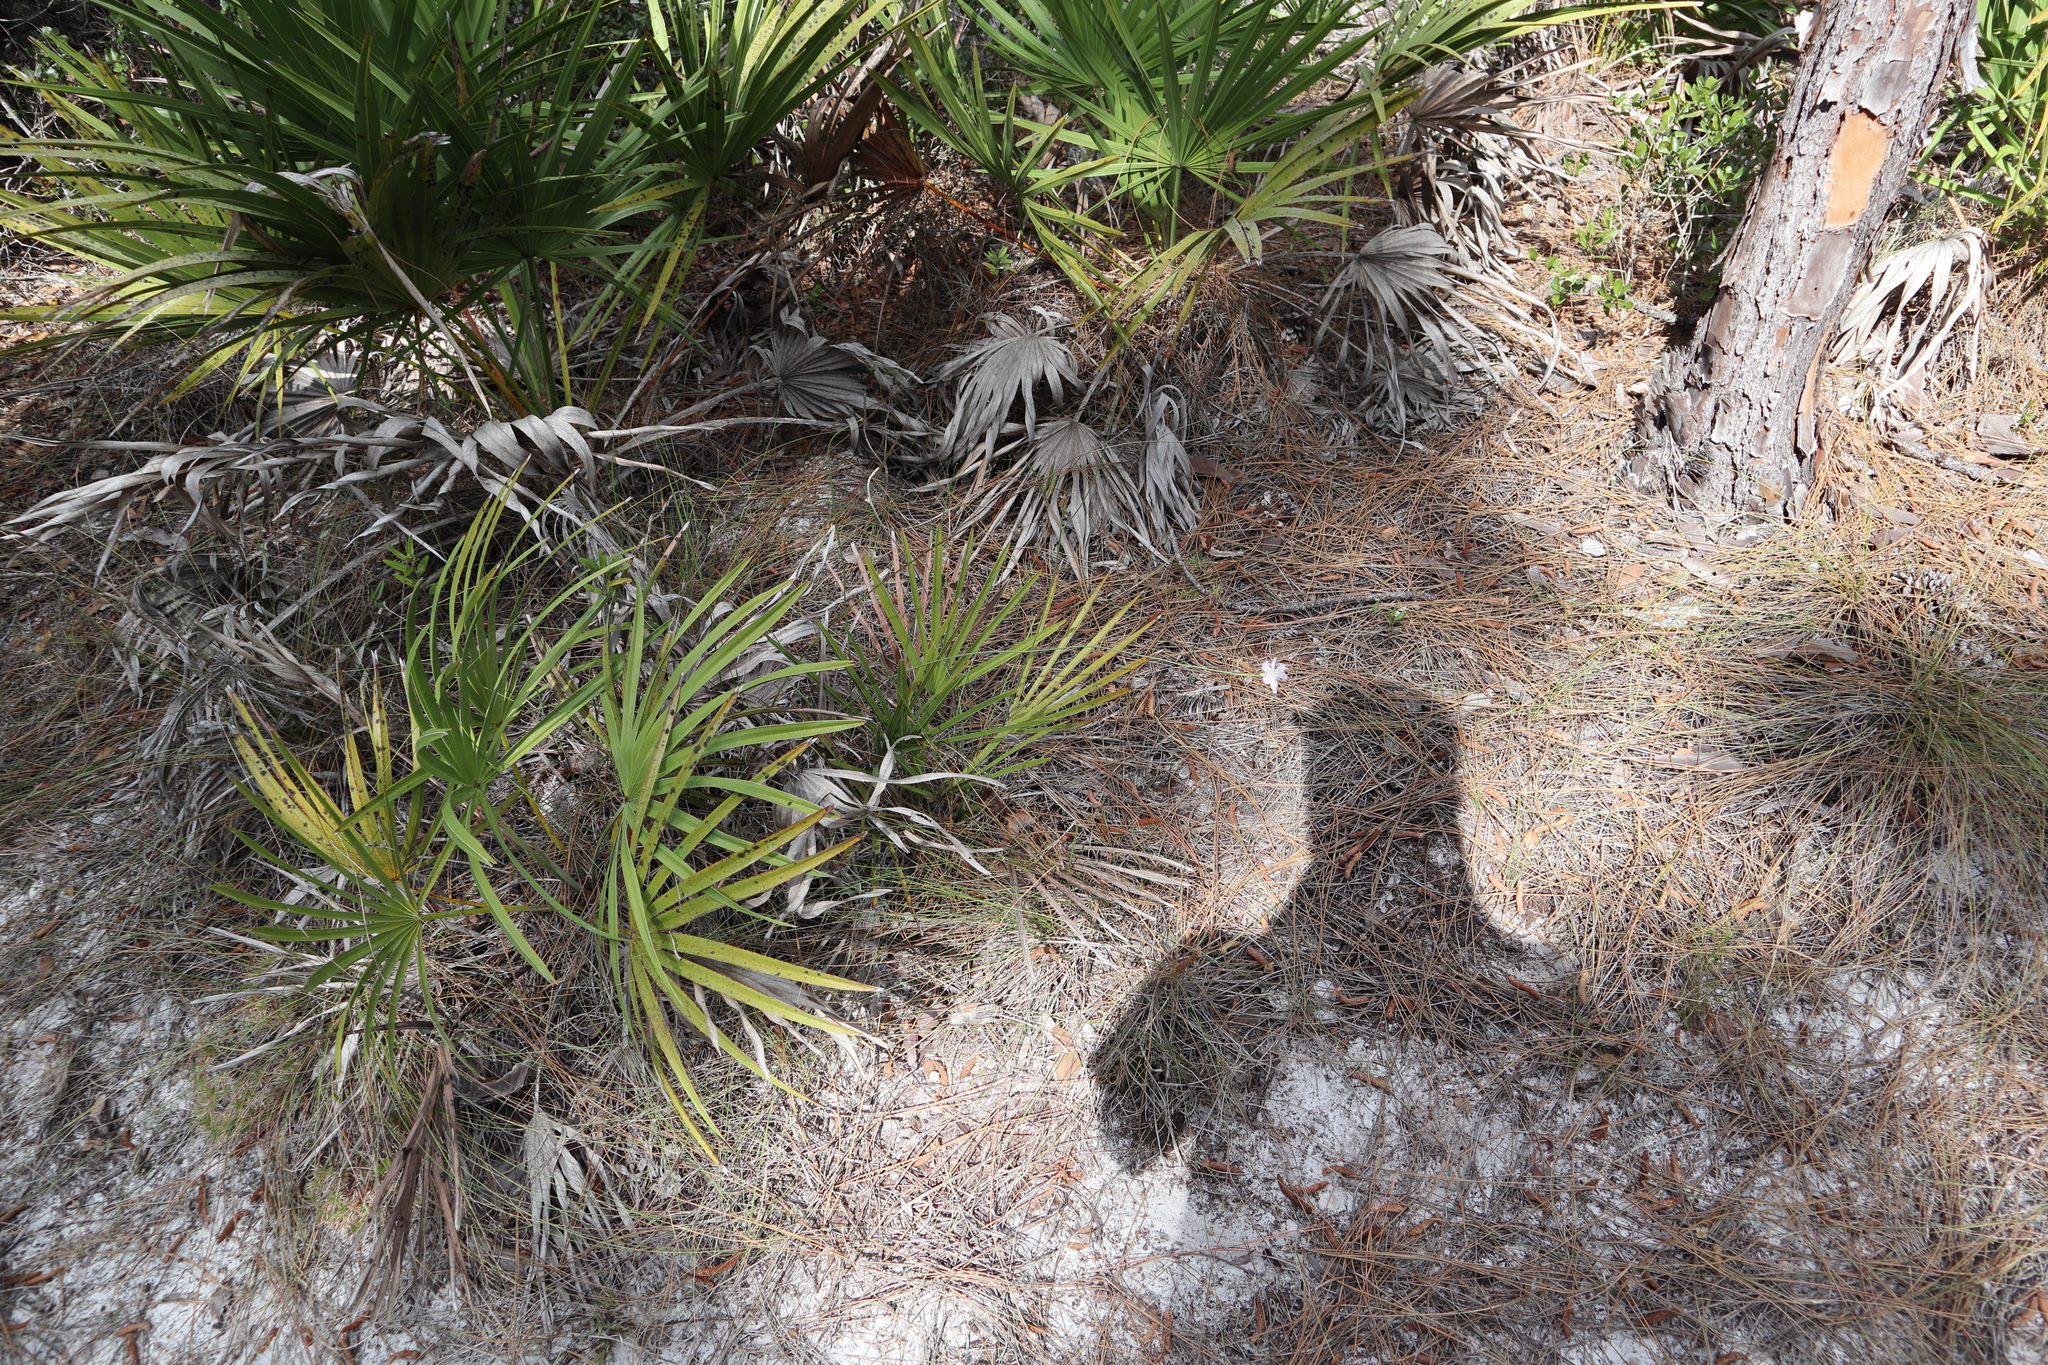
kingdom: Plantae
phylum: Tracheophyta
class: Magnoliopsida
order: Asterales
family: Asteraceae
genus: Lygodesmia
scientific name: Lygodesmia aphylla
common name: Rose-rush
